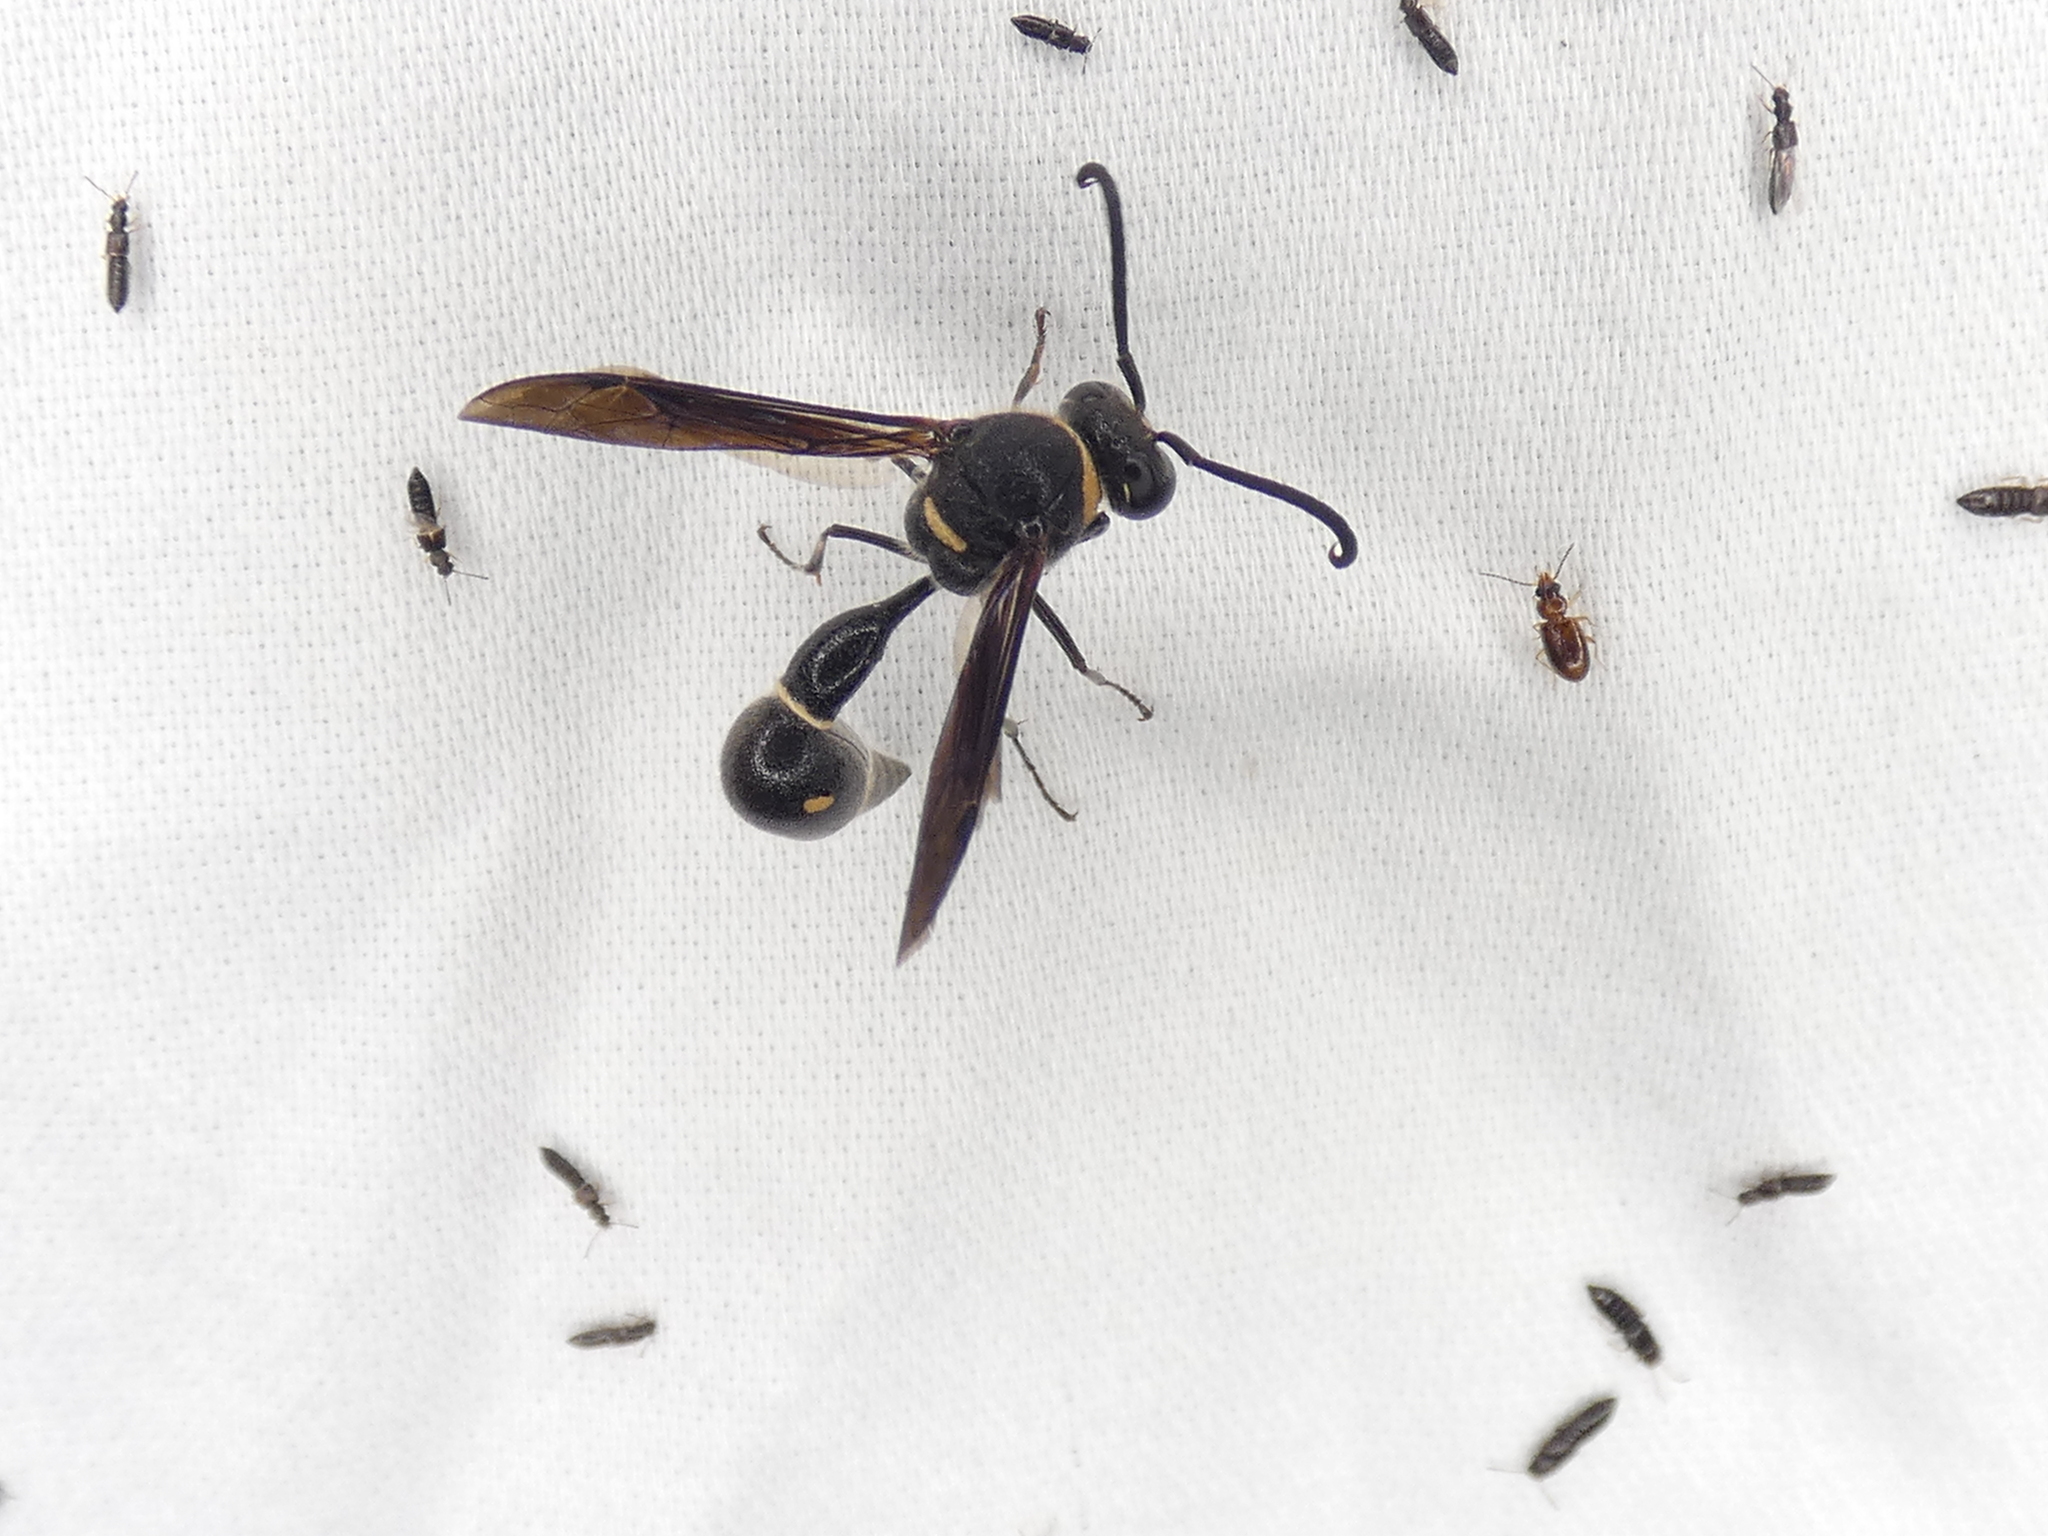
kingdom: Animalia
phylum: Arthropoda
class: Insecta
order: Hymenoptera
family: Vespidae
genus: Eumenes
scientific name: Eumenes fraternus
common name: Fraternal potter wasp
